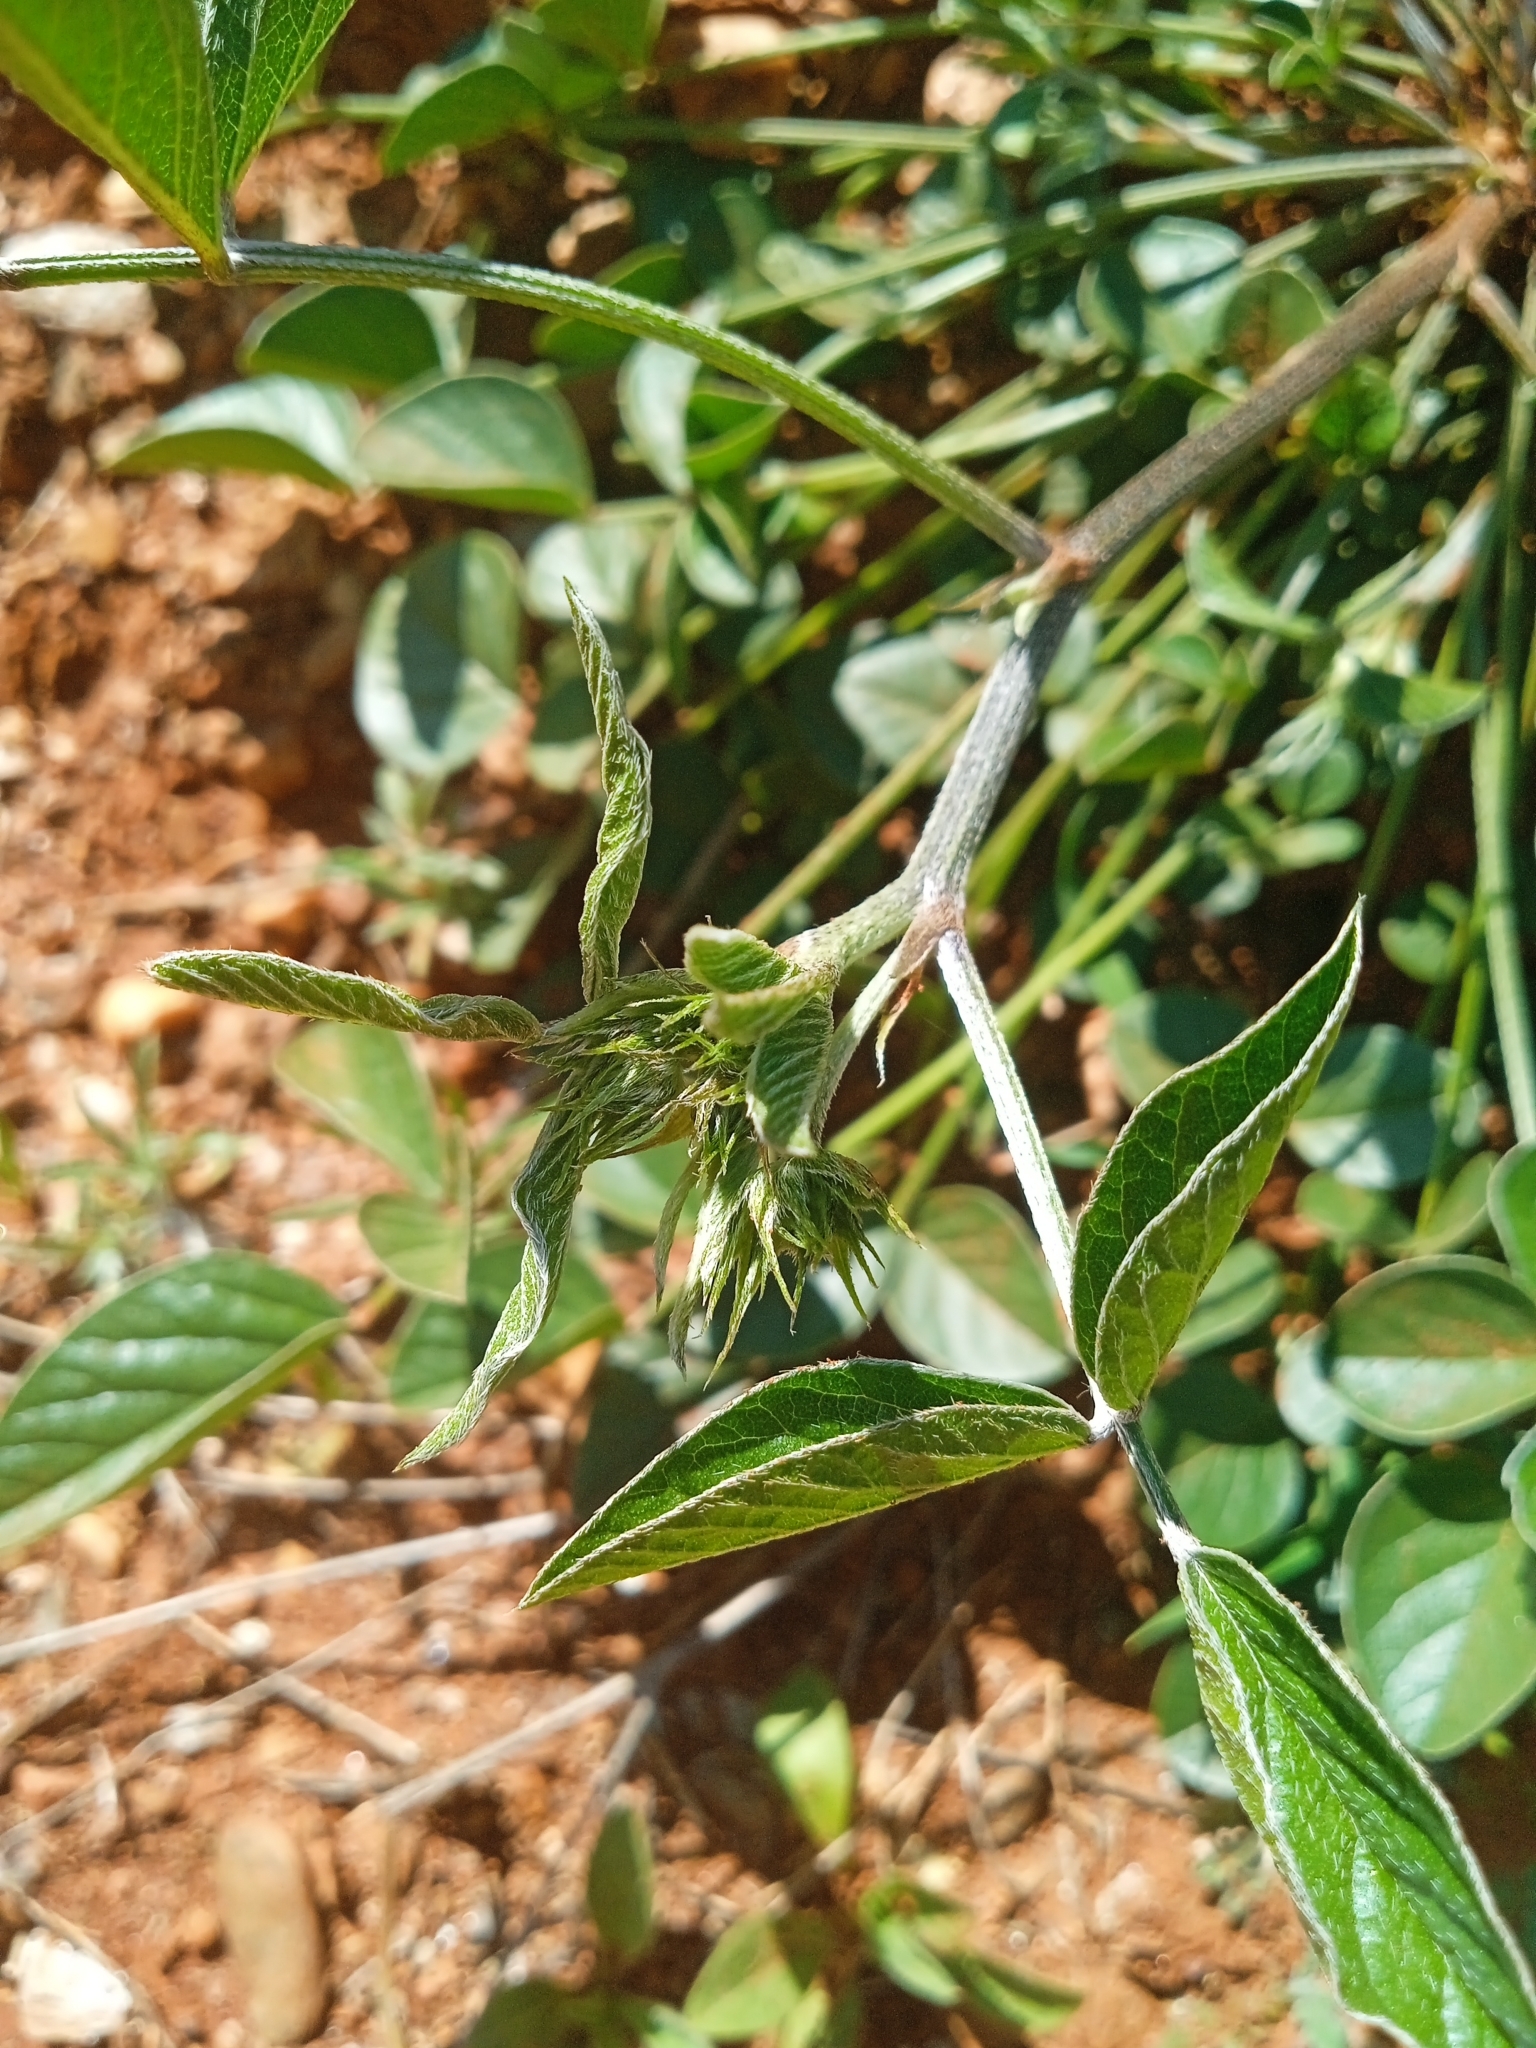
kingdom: Plantae
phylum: Tracheophyta
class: Magnoliopsida
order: Fabales
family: Fabaceae
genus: Bituminaria
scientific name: Bituminaria bituminosa
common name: Arabian pea
